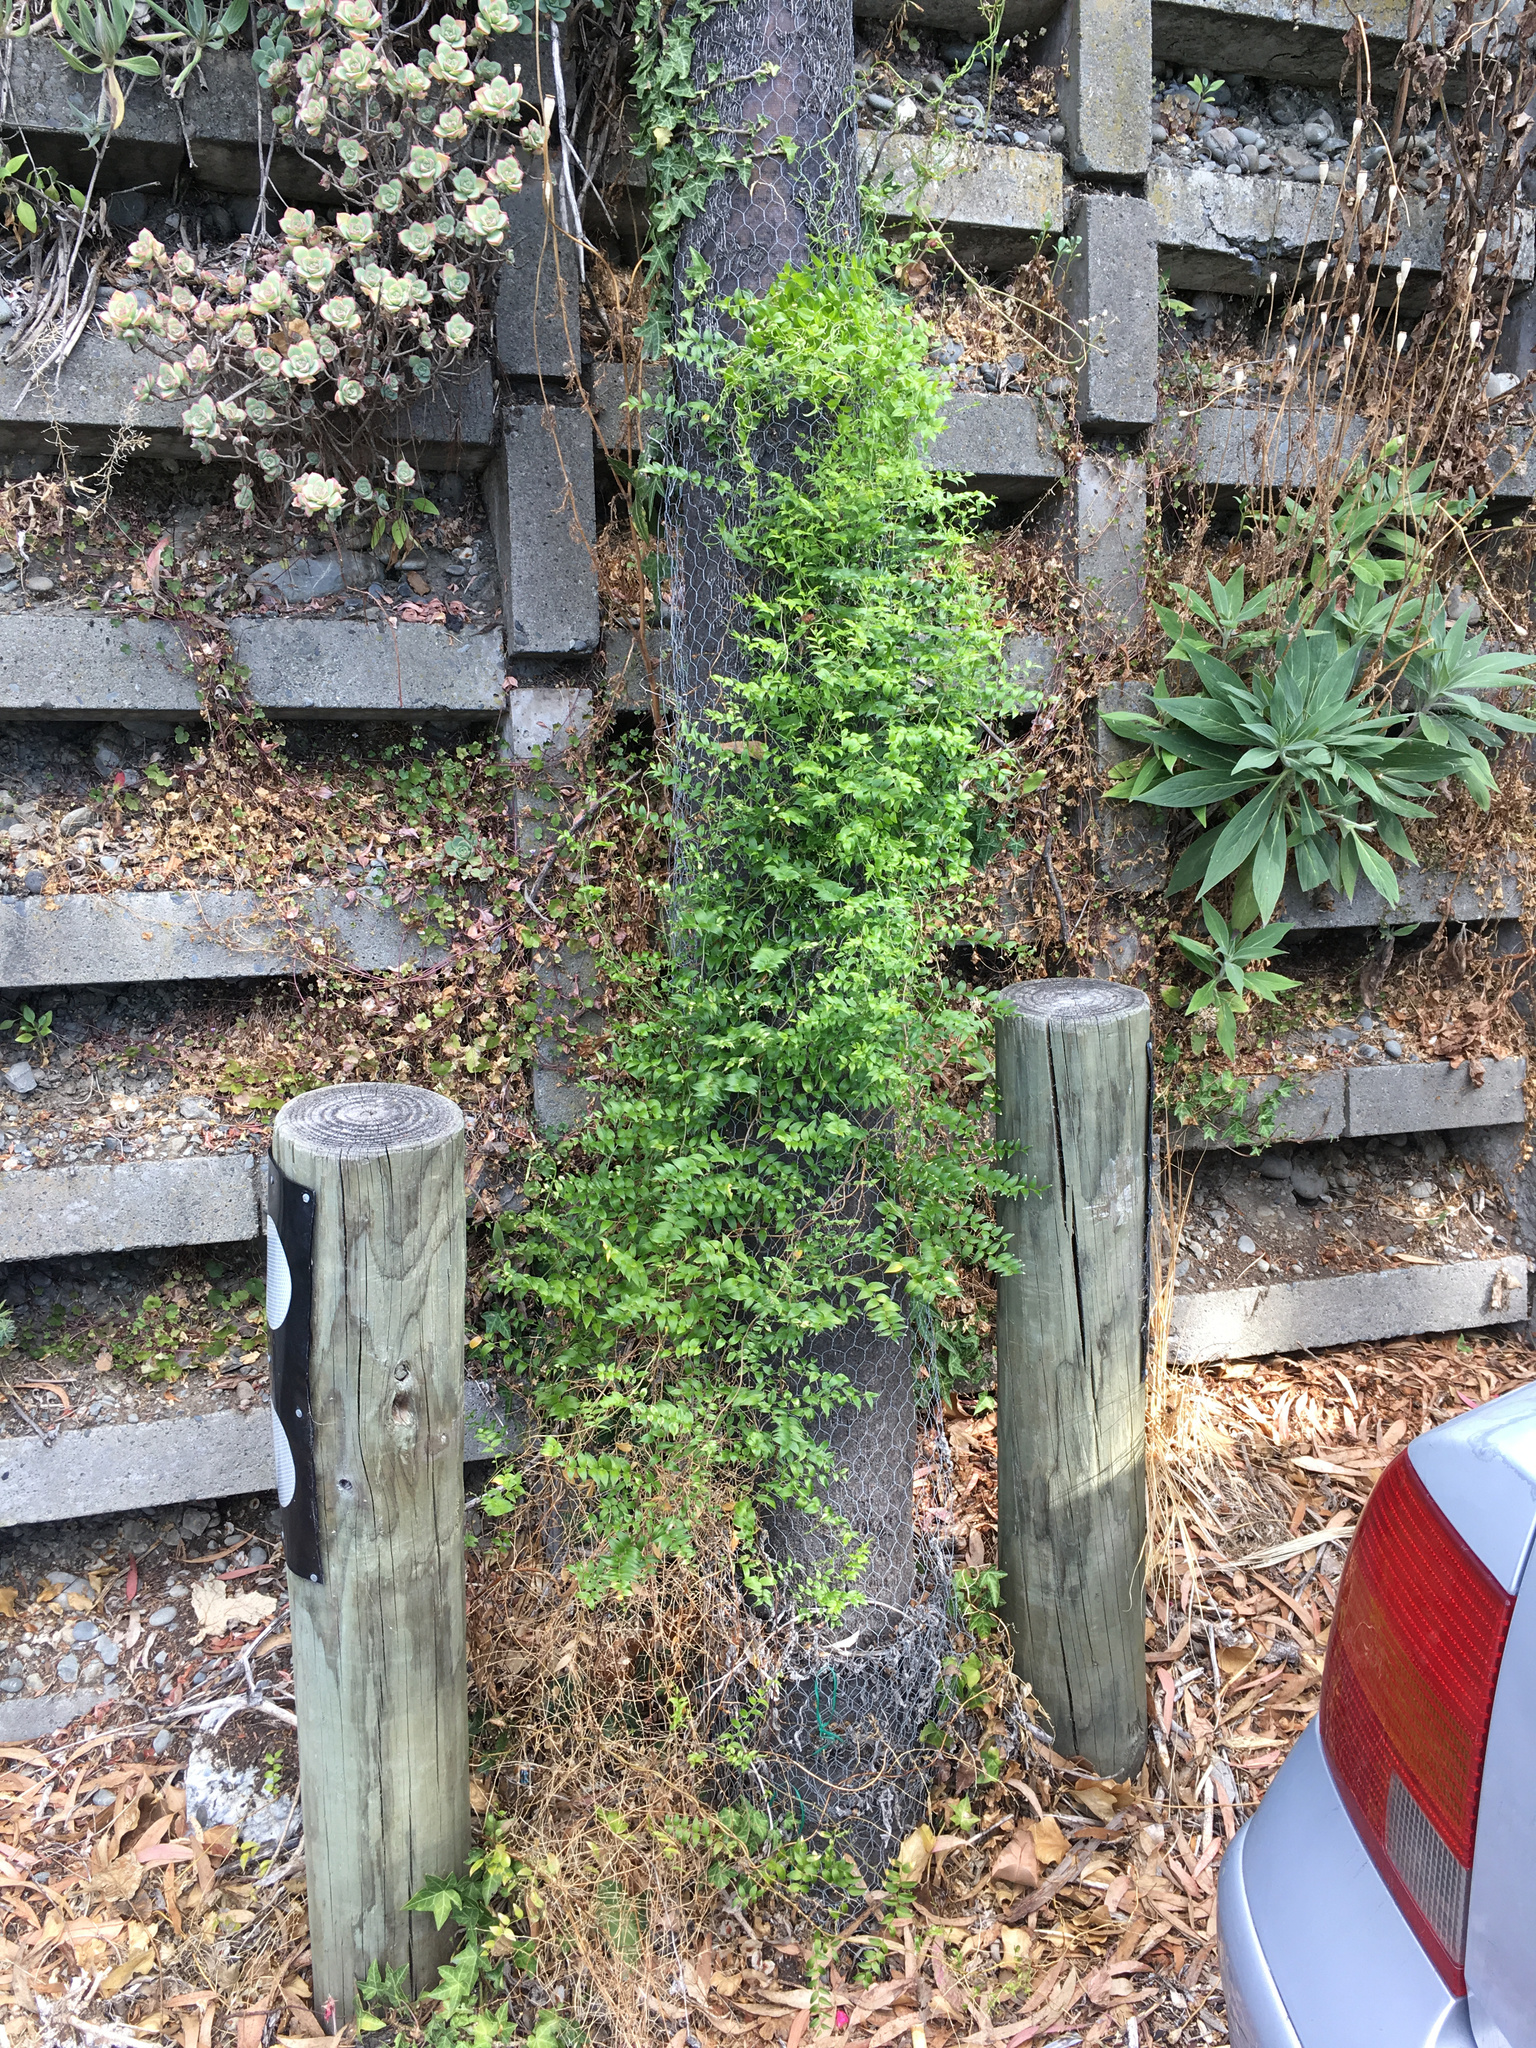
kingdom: Plantae
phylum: Tracheophyta
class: Liliopsida
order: Asparagales
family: Asparagaceae
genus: Asparagus
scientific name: Asparagus asparagoides
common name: African asparagus fern
